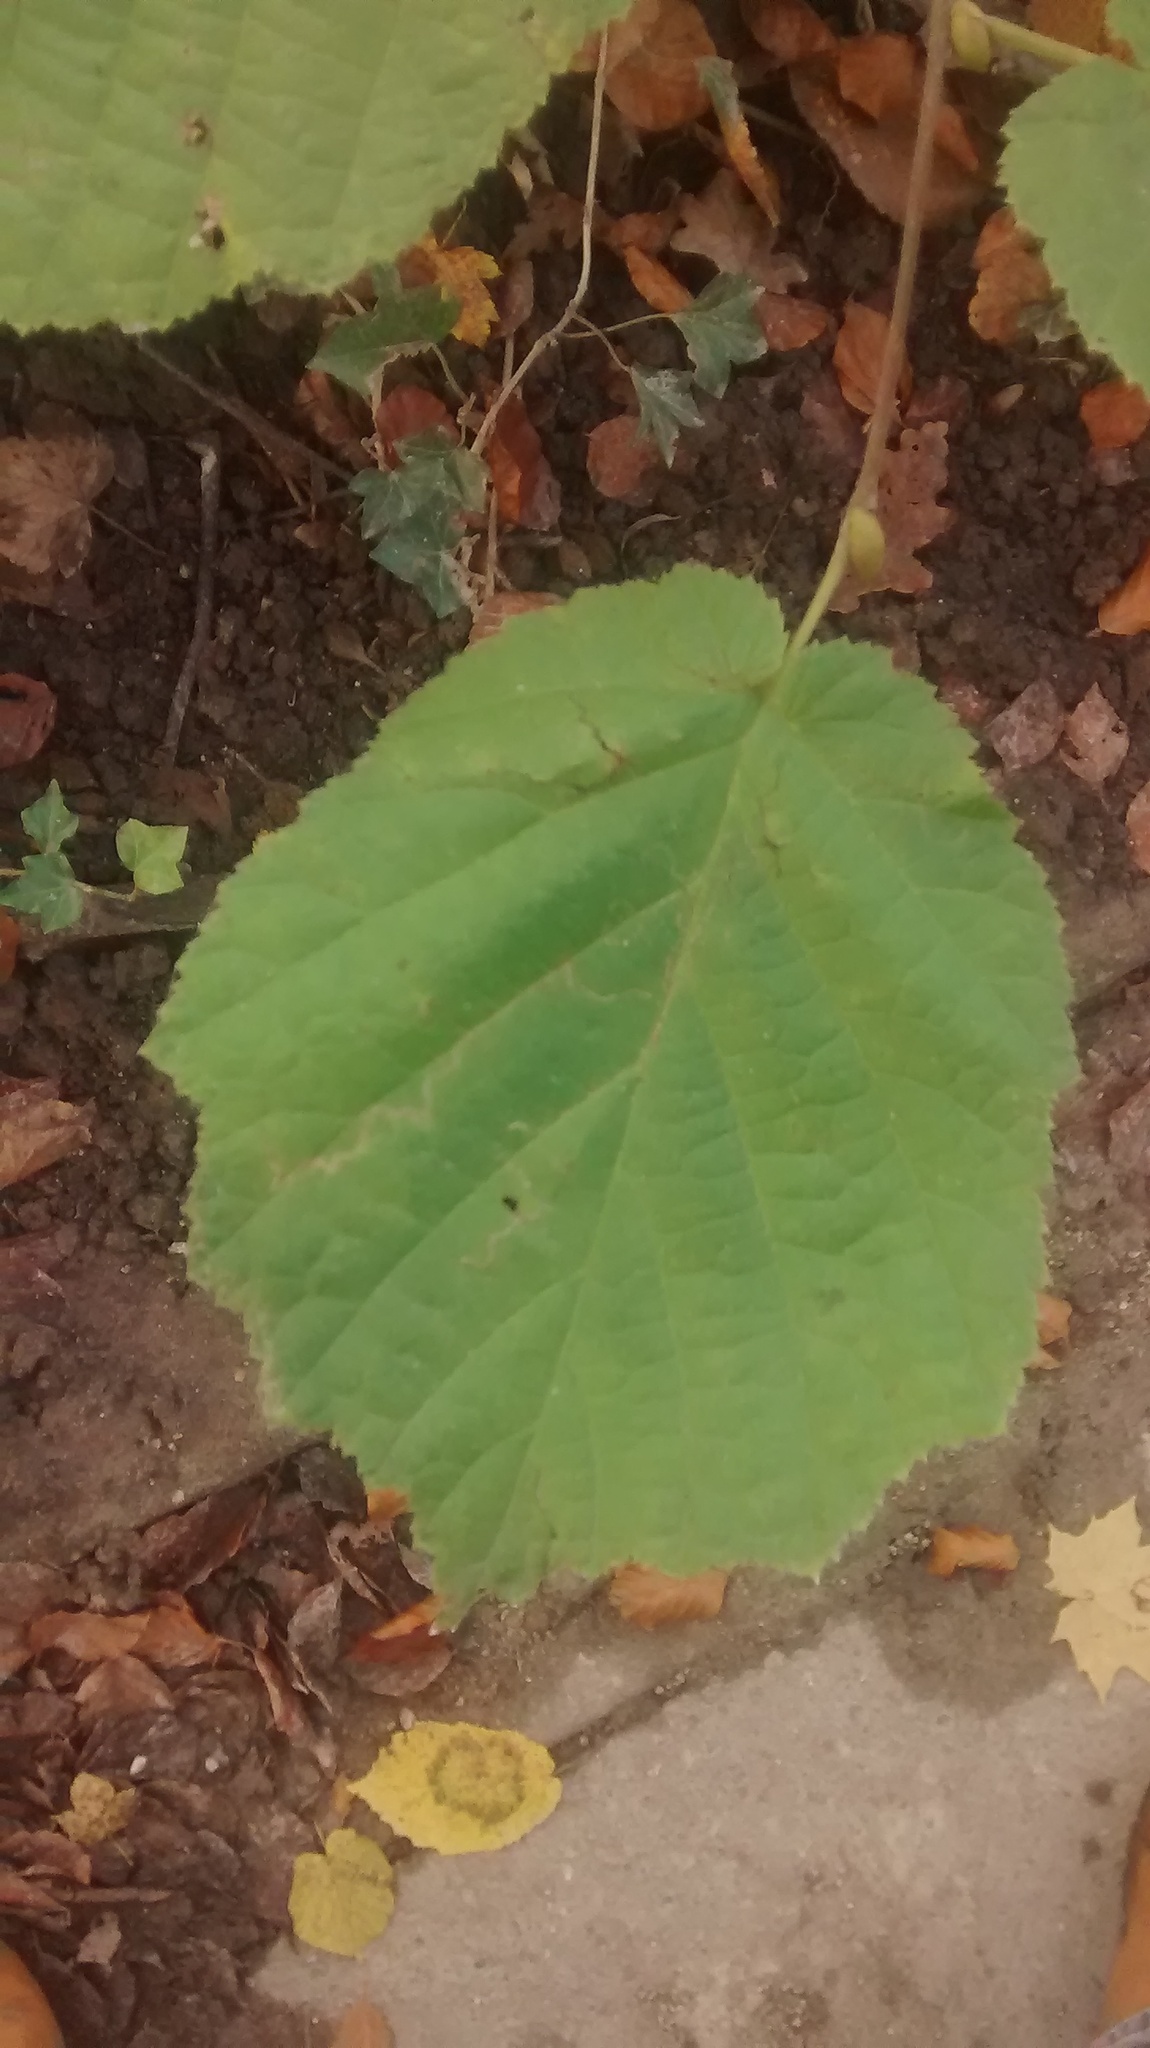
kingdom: Plantae
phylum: Tracheophyta
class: Magnoliopsida
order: Fagales
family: Betulaceae
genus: Corylus
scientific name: Corylus avellana
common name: European hazel
